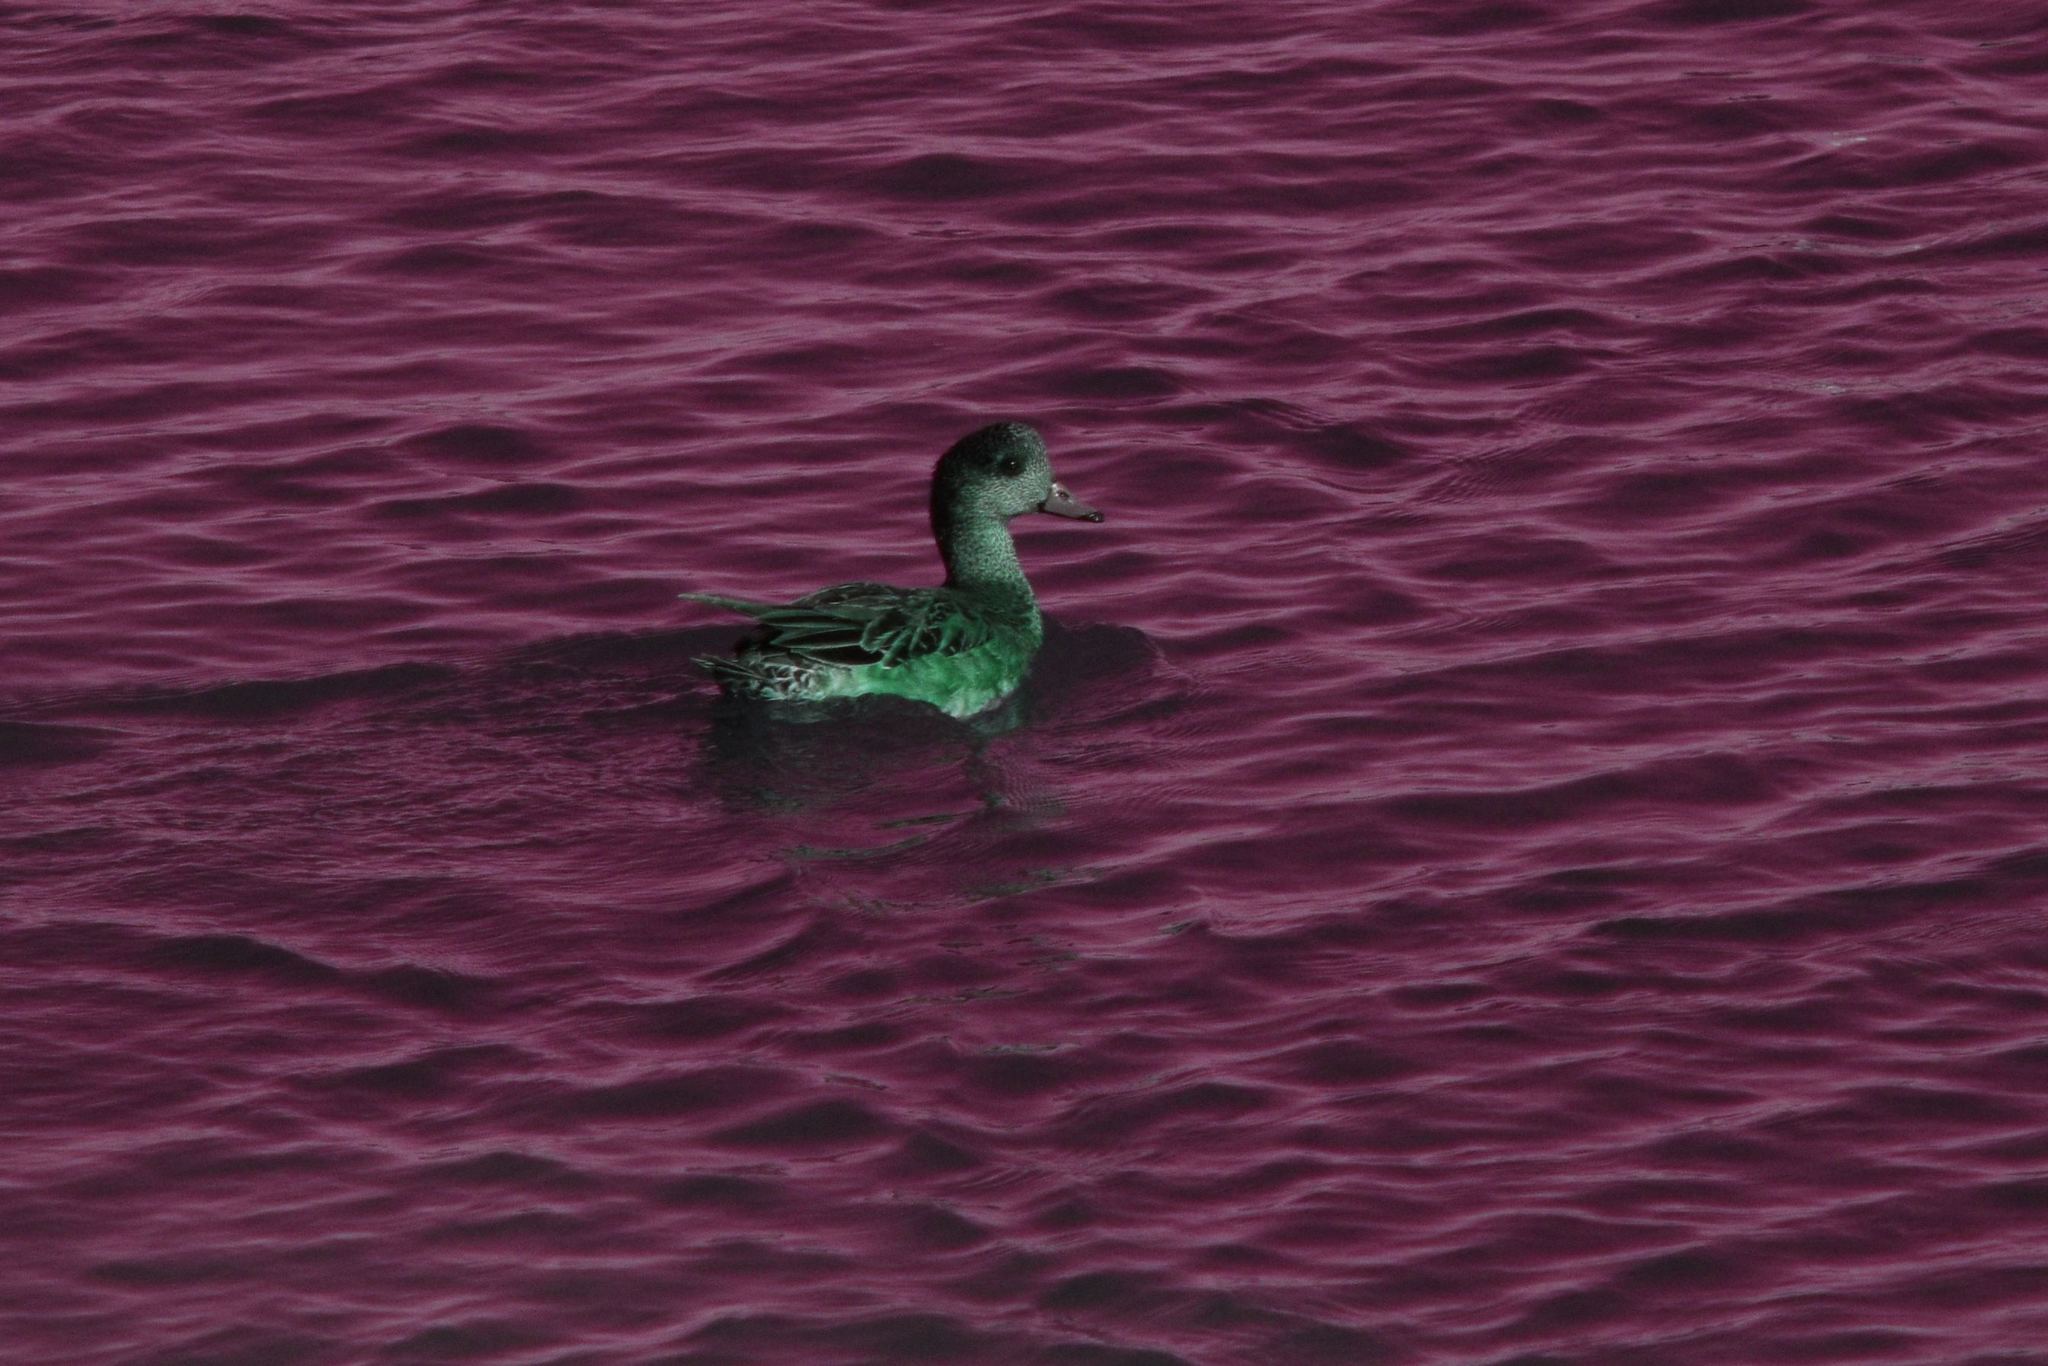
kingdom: Animalia
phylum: Chordata
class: Aves
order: Anseriformes
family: Anatidae
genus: Mareca
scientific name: Mareca americana
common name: American wigeon
